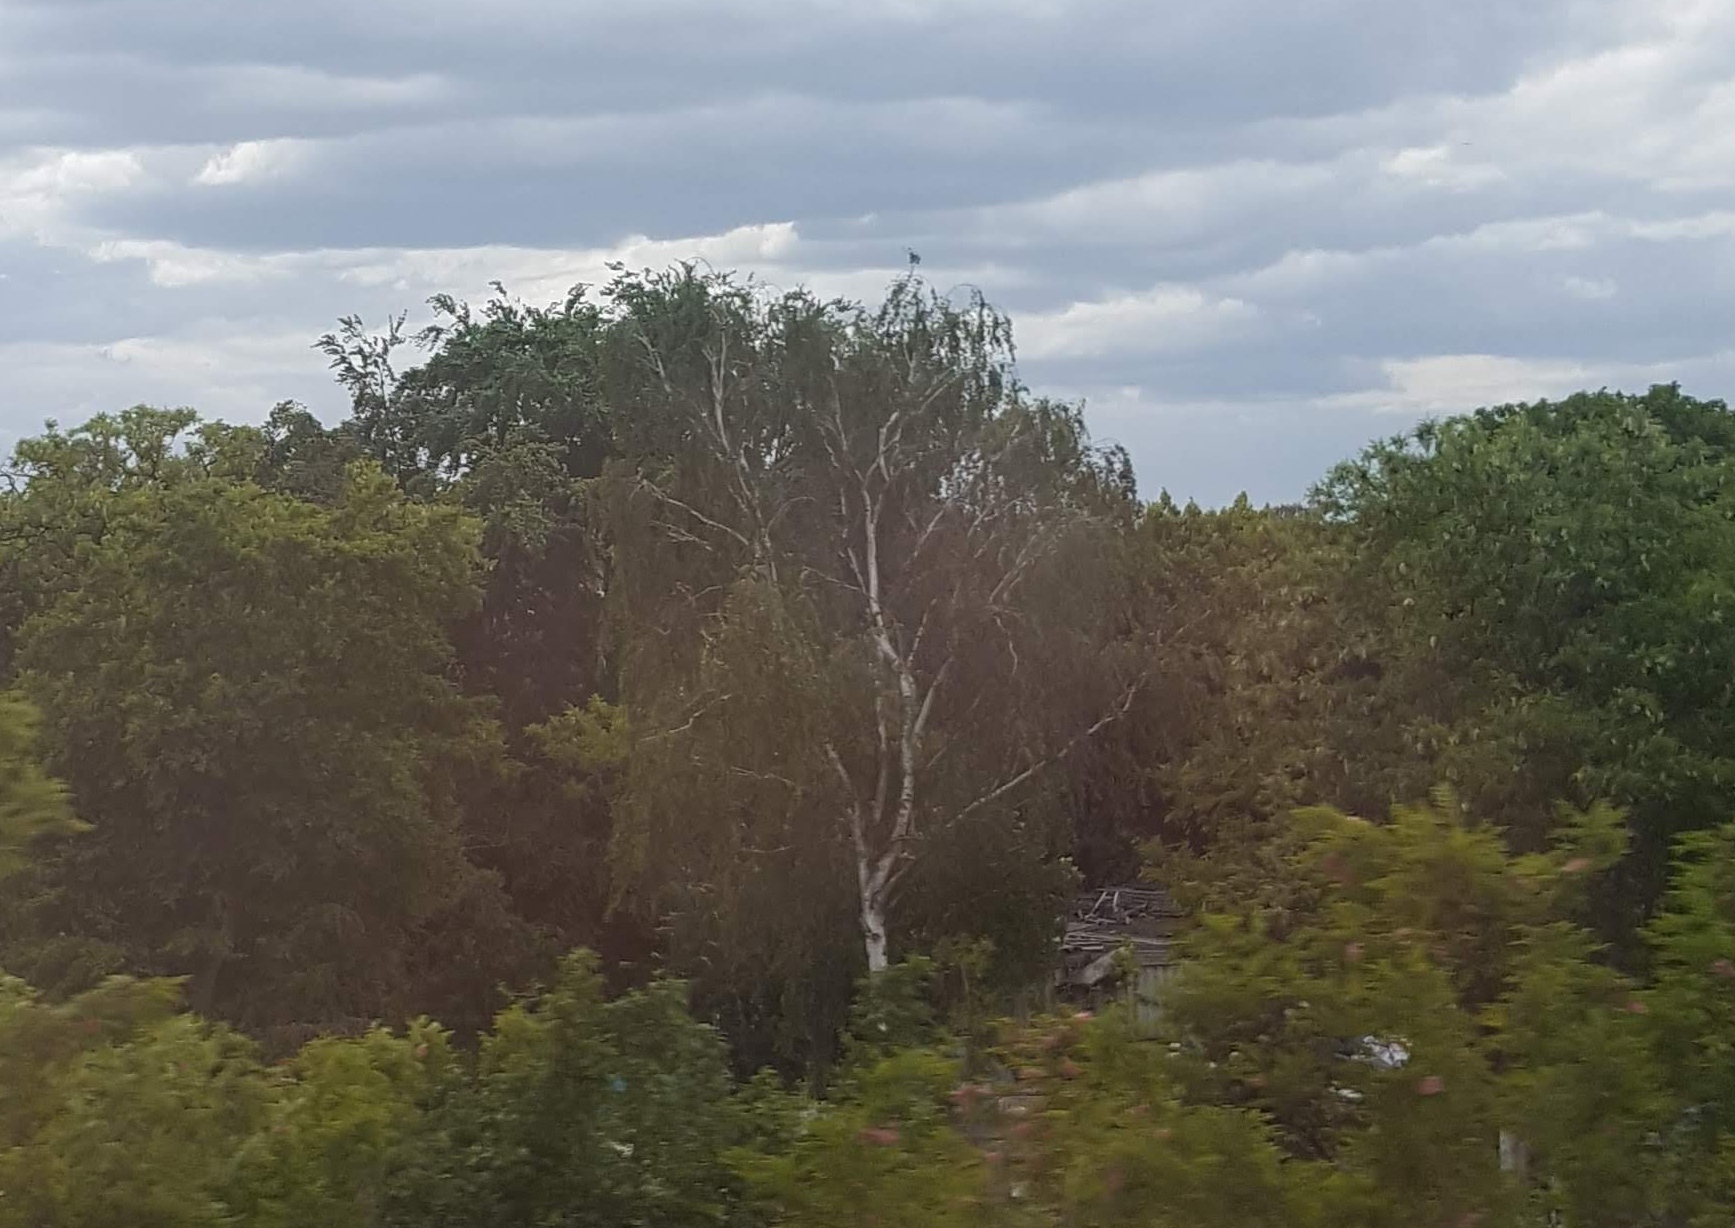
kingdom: Plantae
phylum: Tracheophyta
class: Magnoliopsida
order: Fagales
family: Betulaceae
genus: Betula
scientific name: Betula pendula
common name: Silver birch
